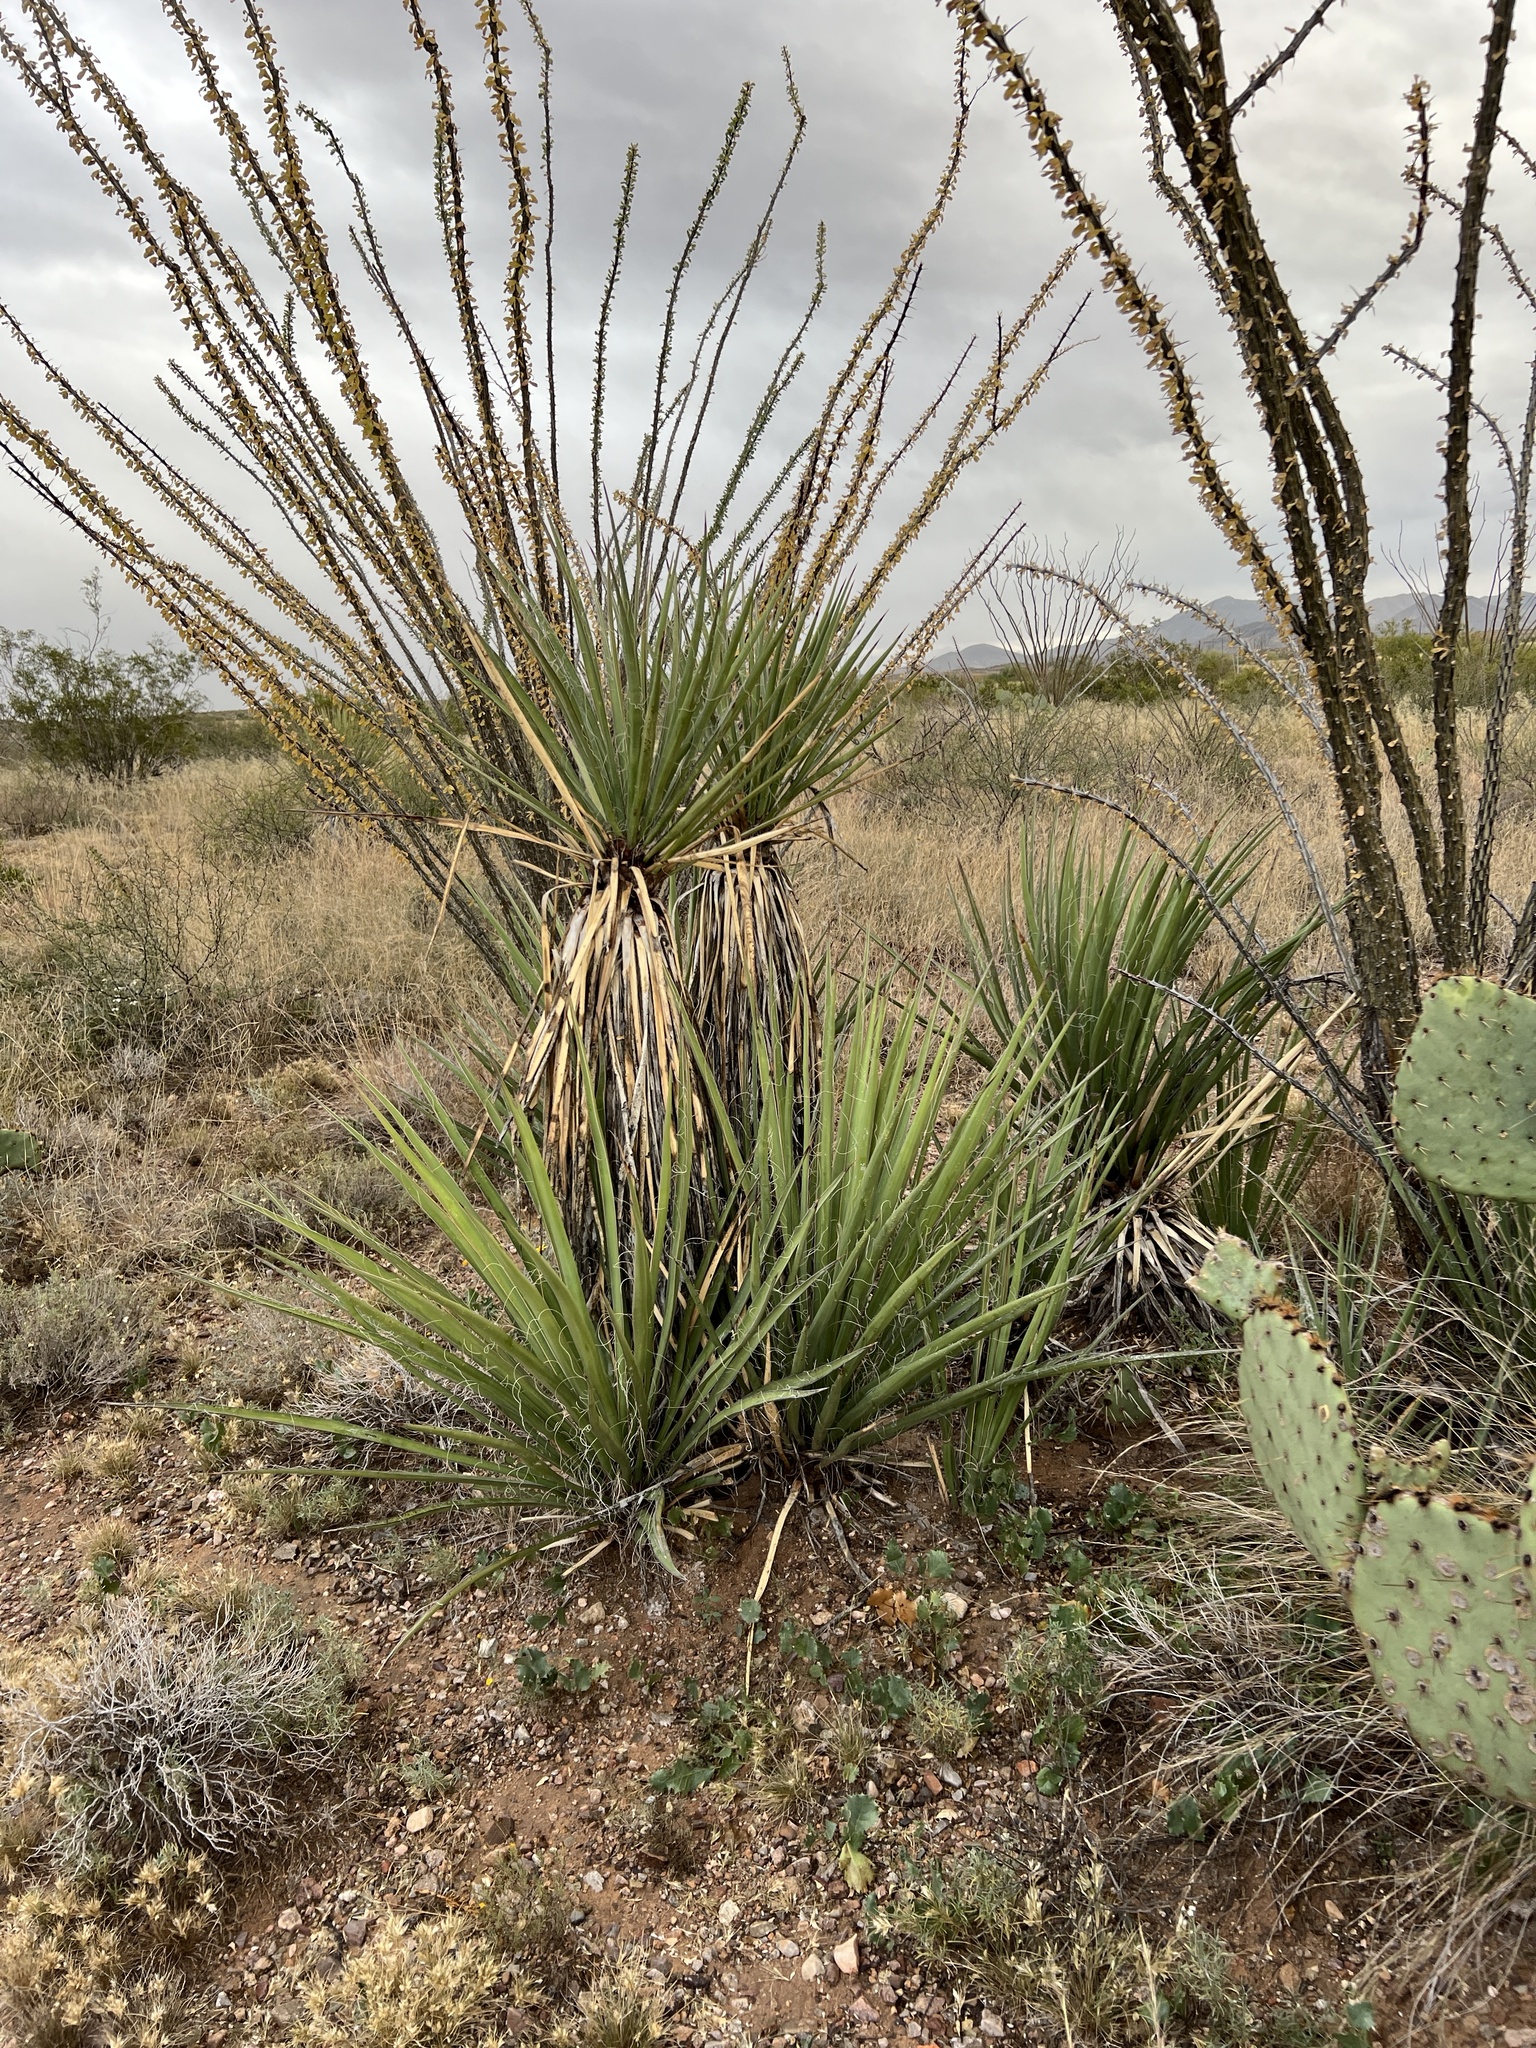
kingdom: Plantae
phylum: Tracheophyta
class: Liliopsida
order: Asparagales
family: Asparagaceae
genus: Yucca
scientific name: Yucca baccata
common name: Banana yucca
